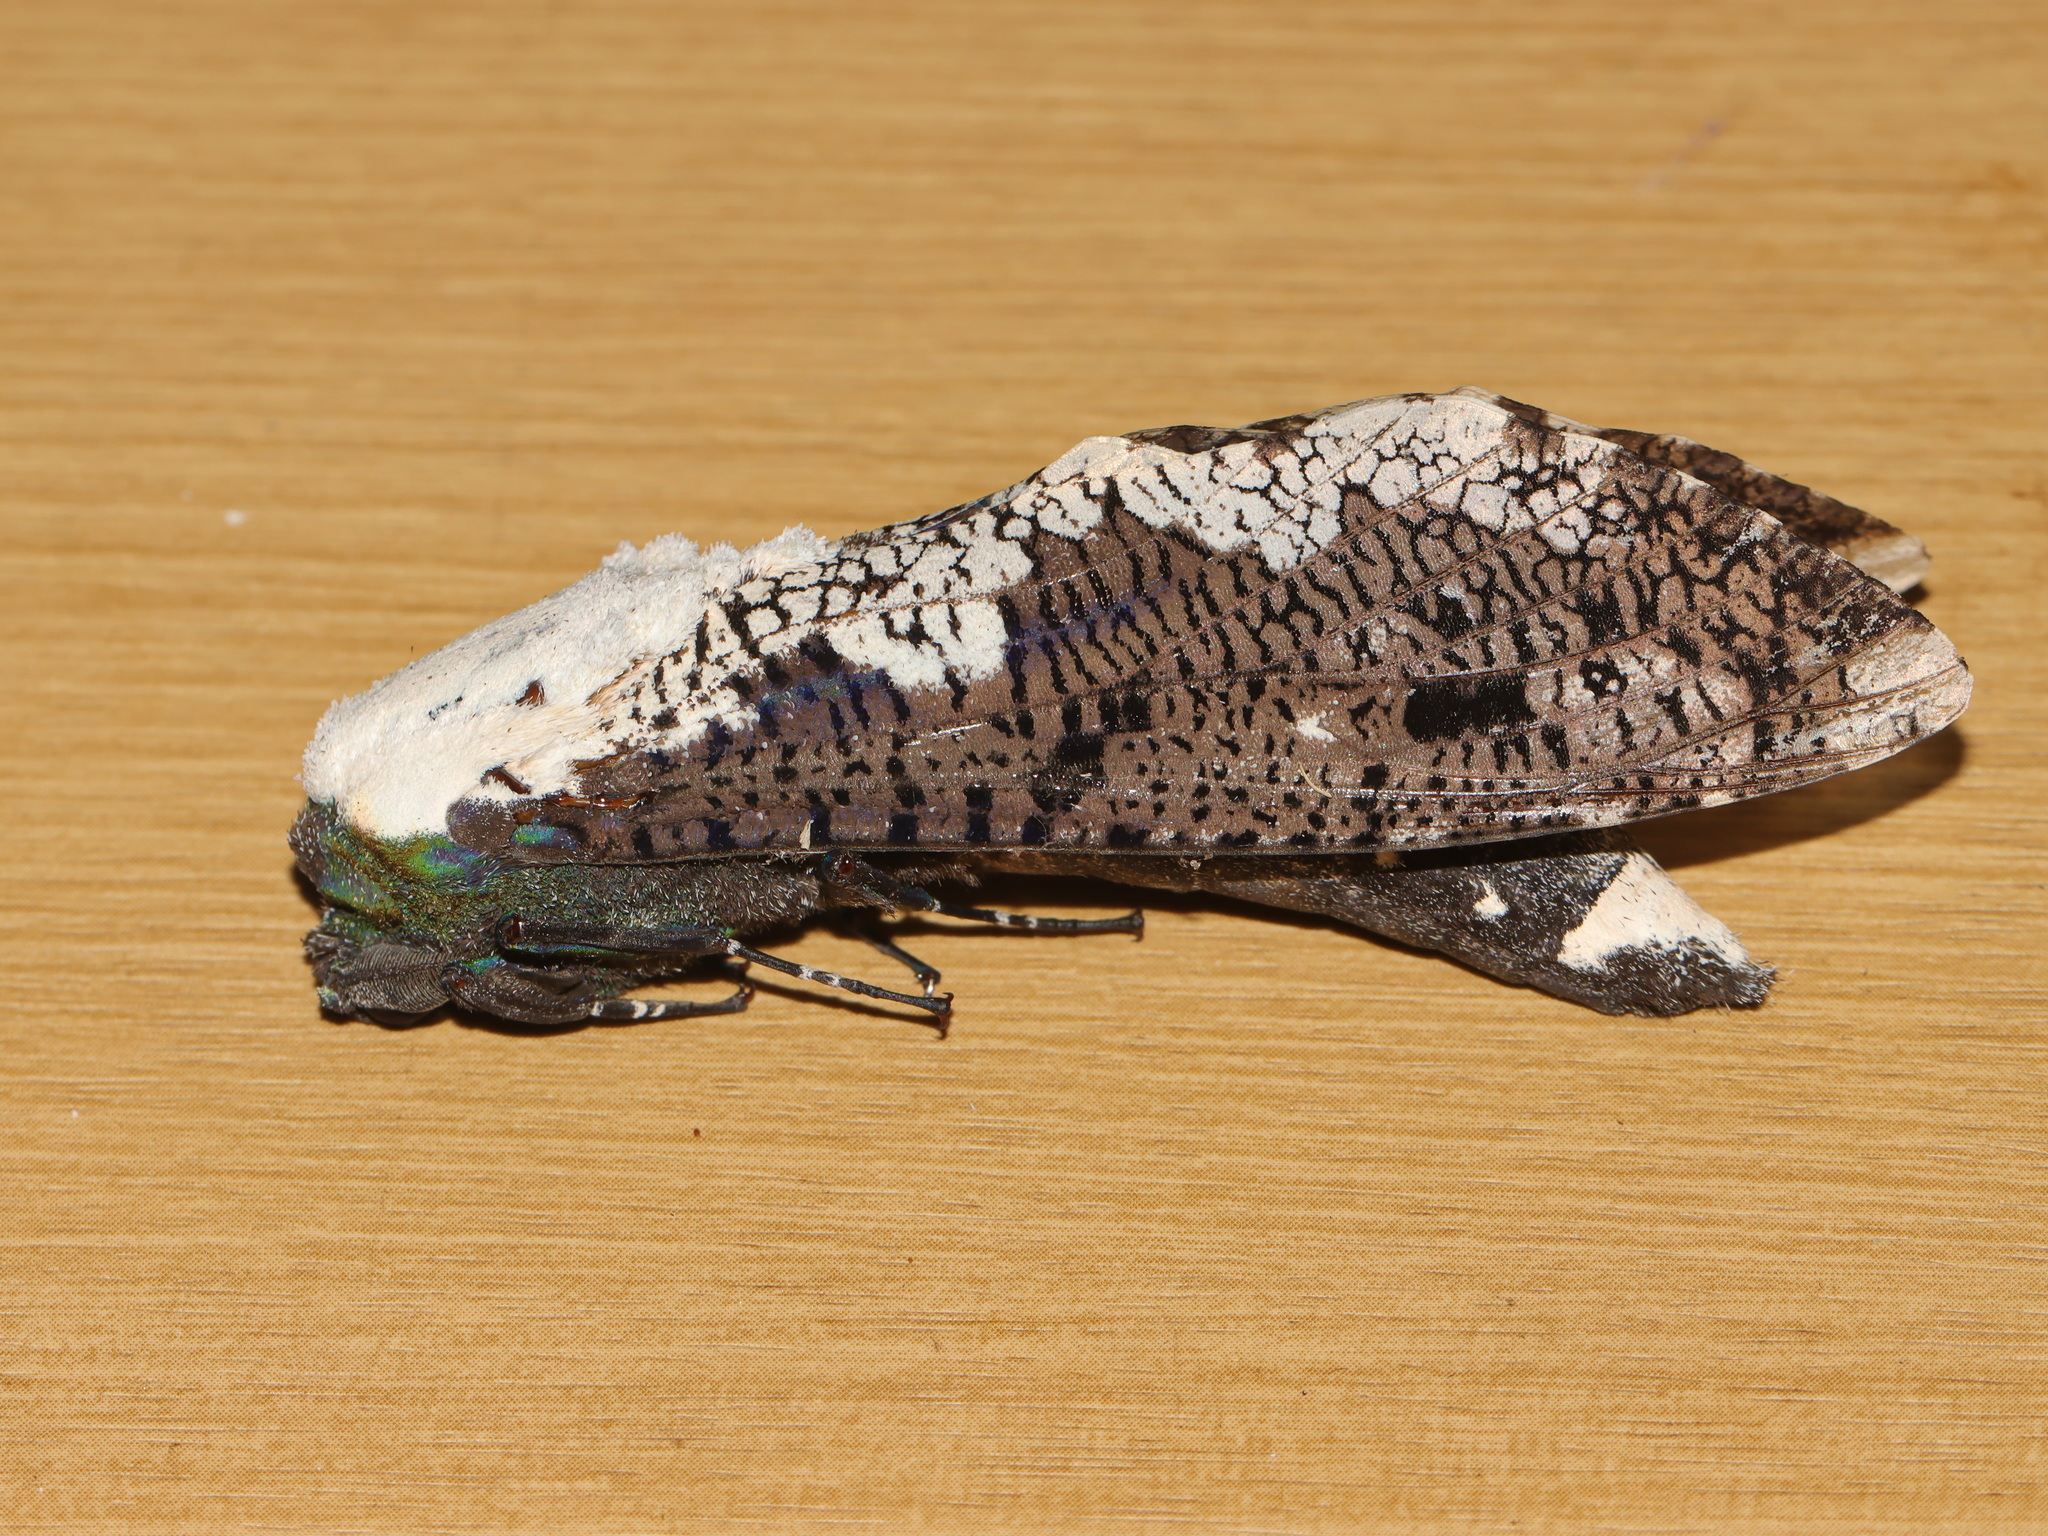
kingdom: Animalia
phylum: Arthropoda
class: Insecta
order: Lepidoptera
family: Cossidae
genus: Xyleutes
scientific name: Xyleutes persona
